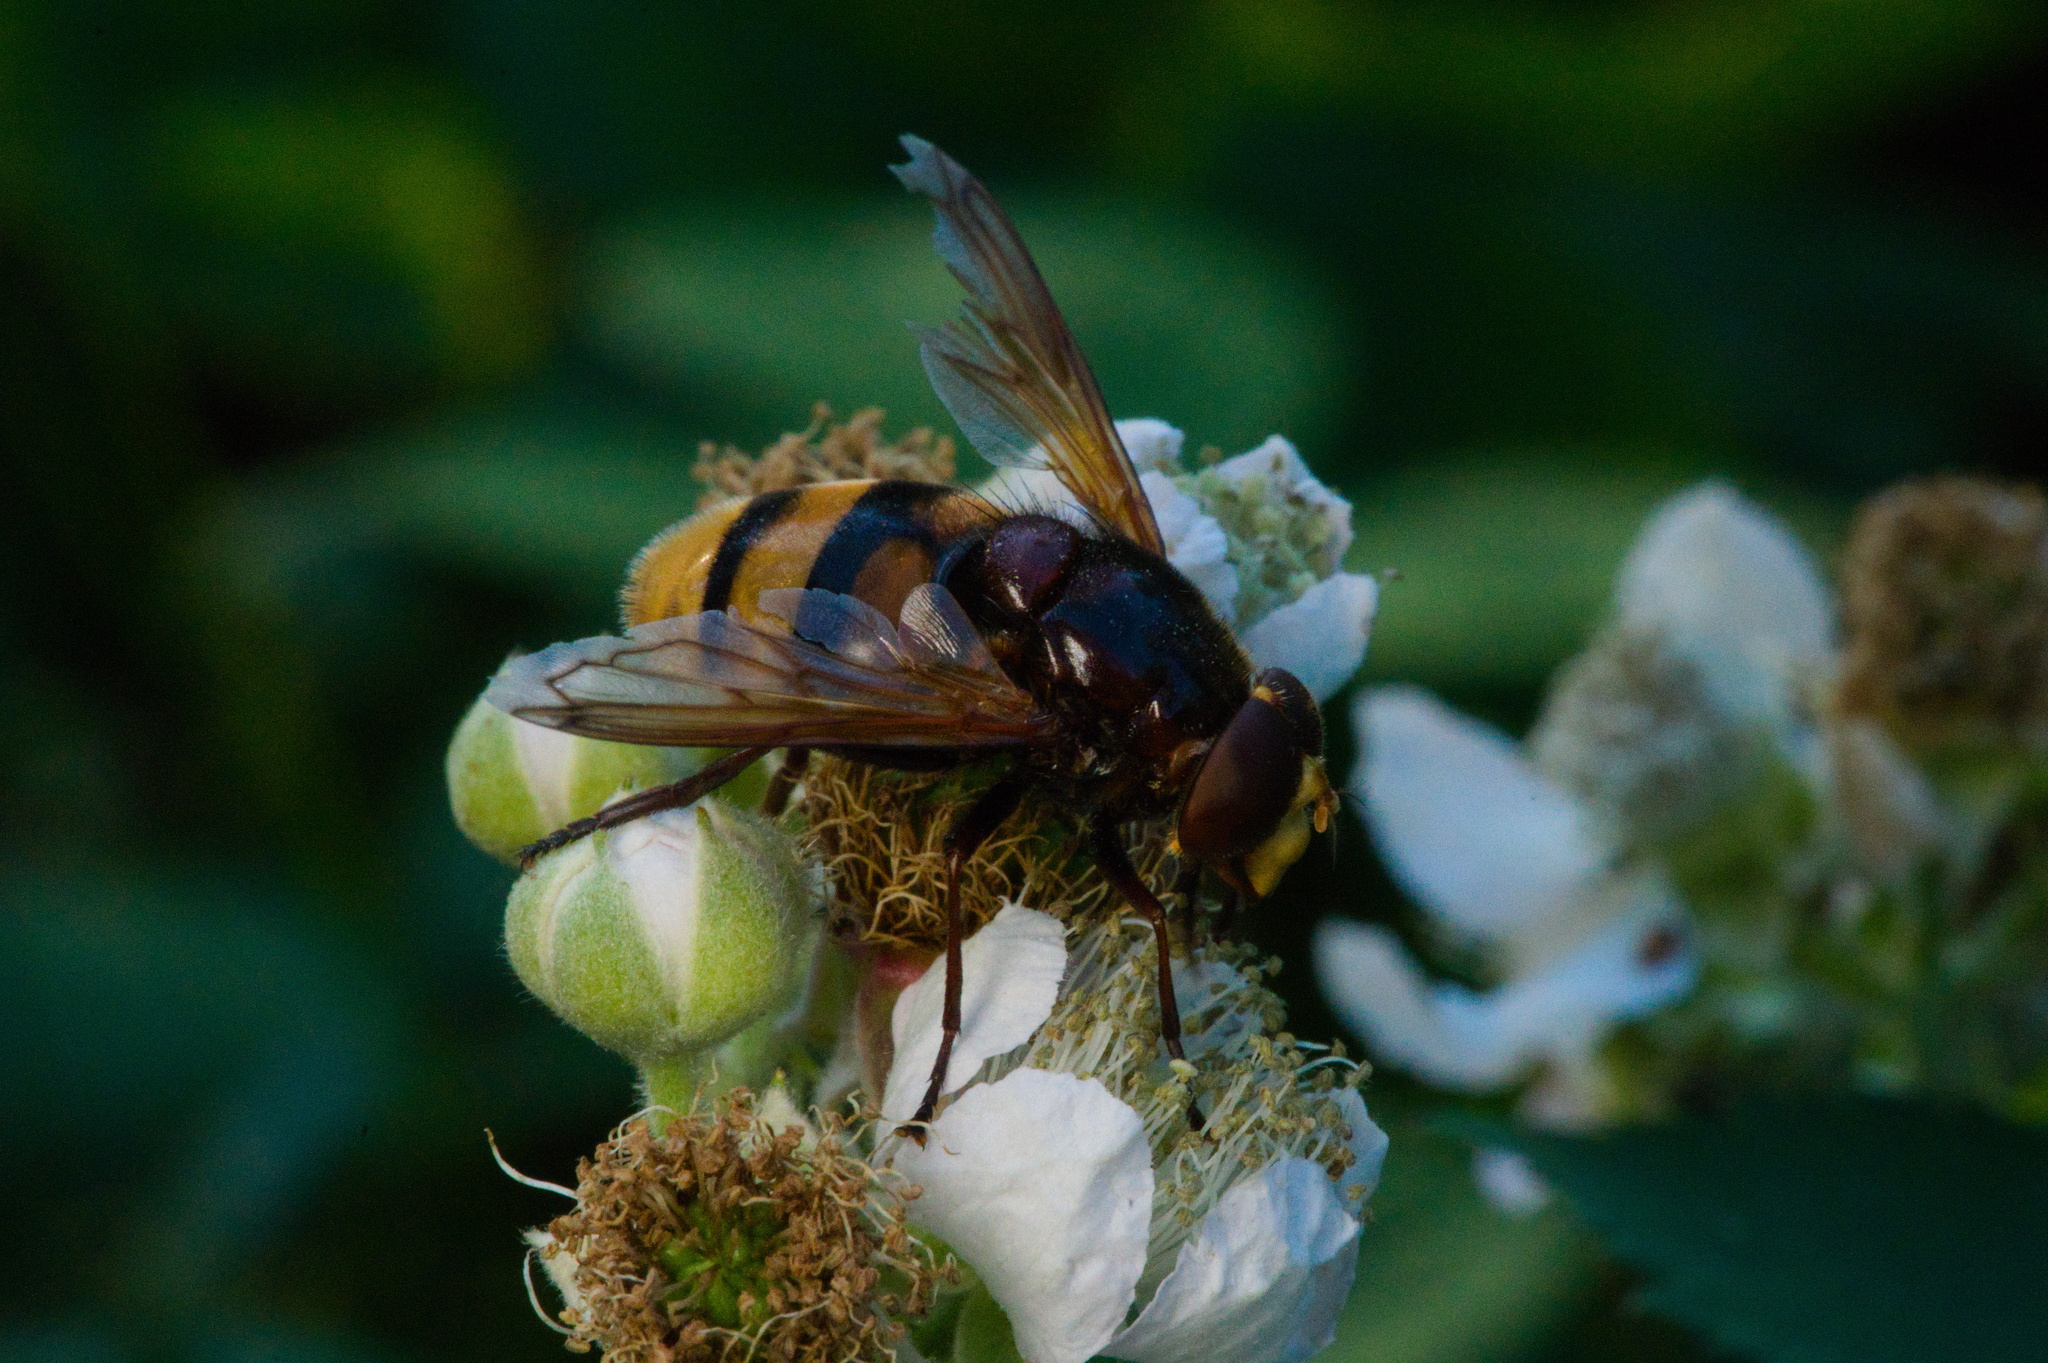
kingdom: Animalia
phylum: Arthropoda
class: Insecta
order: Diptera
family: Syrphidae
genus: Volucella
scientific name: Volucella zonaria
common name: Hornet hoverfly
